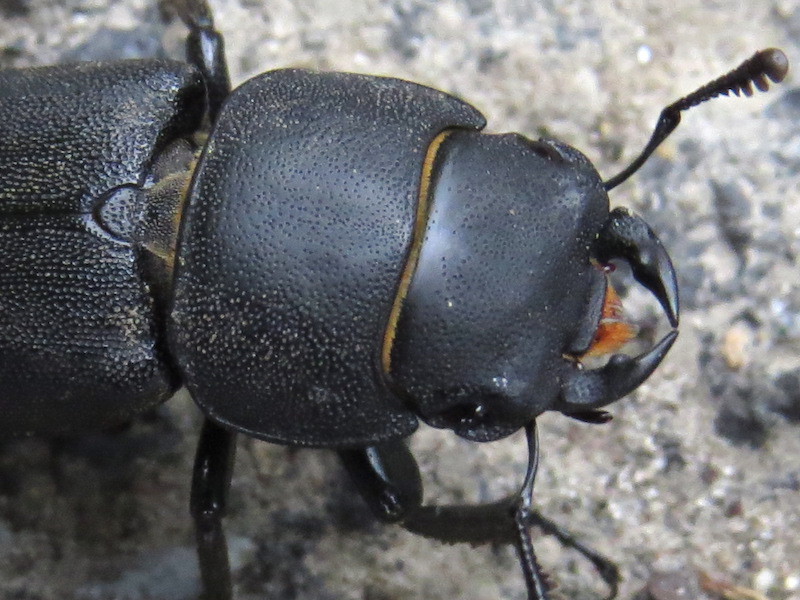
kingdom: Animalia
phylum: Arthropoda
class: Insecta
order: Coleoptera
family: Lucanidae
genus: Dorcus
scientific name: Dorcus parallelipipedus
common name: Lesser stag beetle
